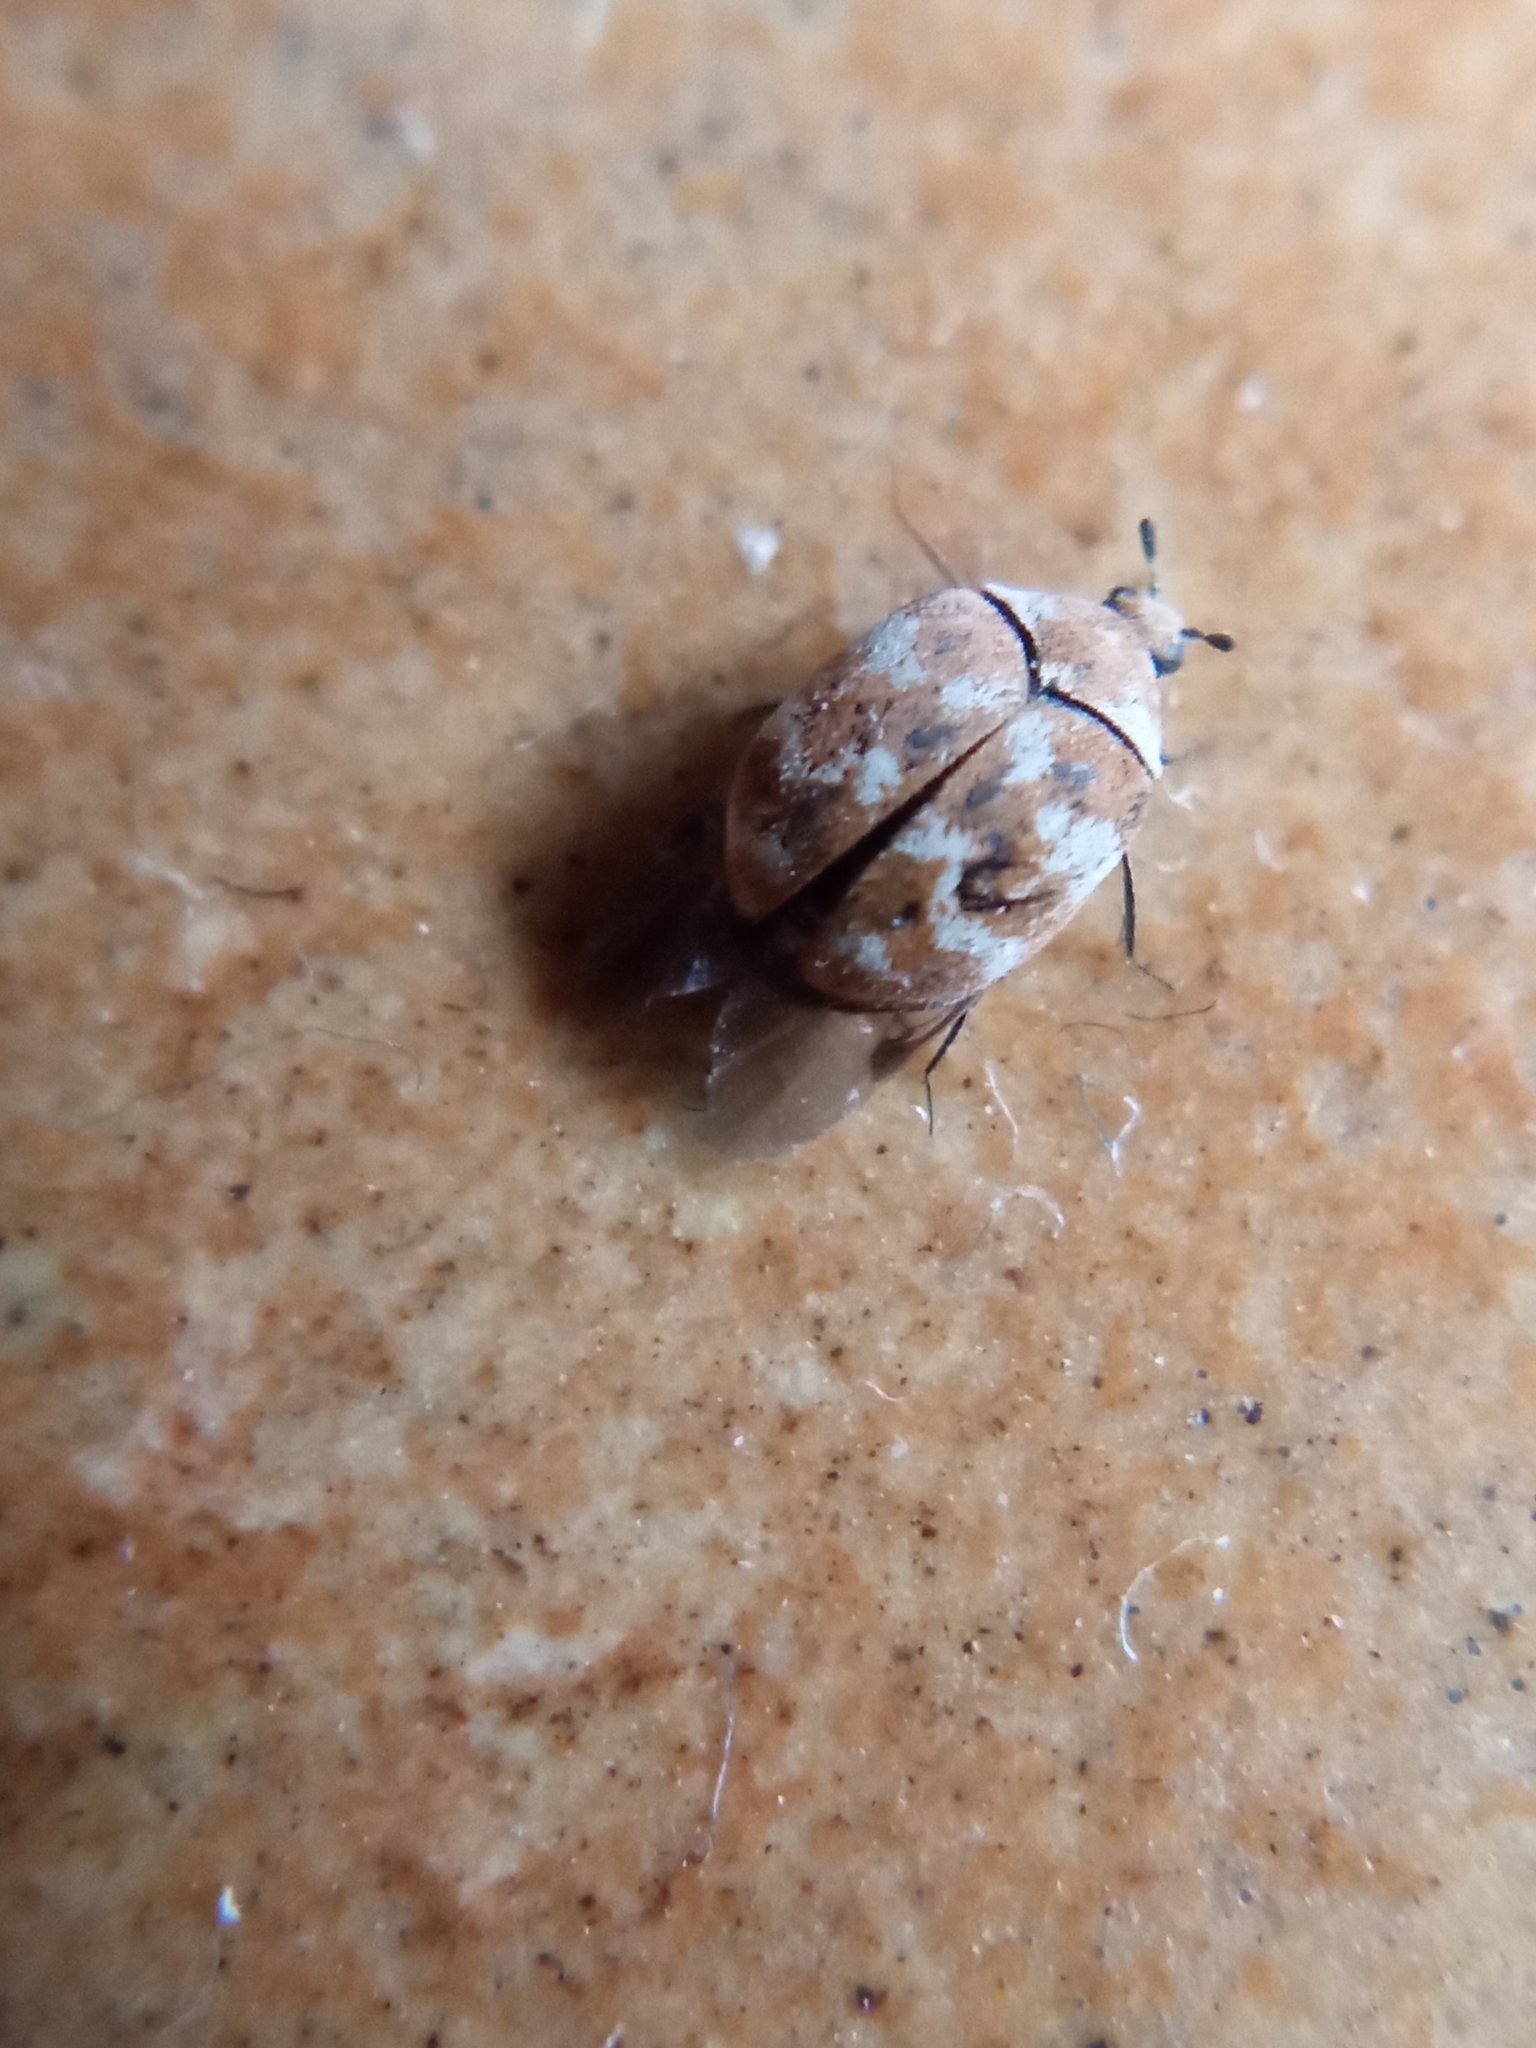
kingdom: Animalia
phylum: Arthropoda
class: Insecta
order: Coleoptera
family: Dermestidae
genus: Anthrenus
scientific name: Anthrenus verbasci
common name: Varied carpet beetle
